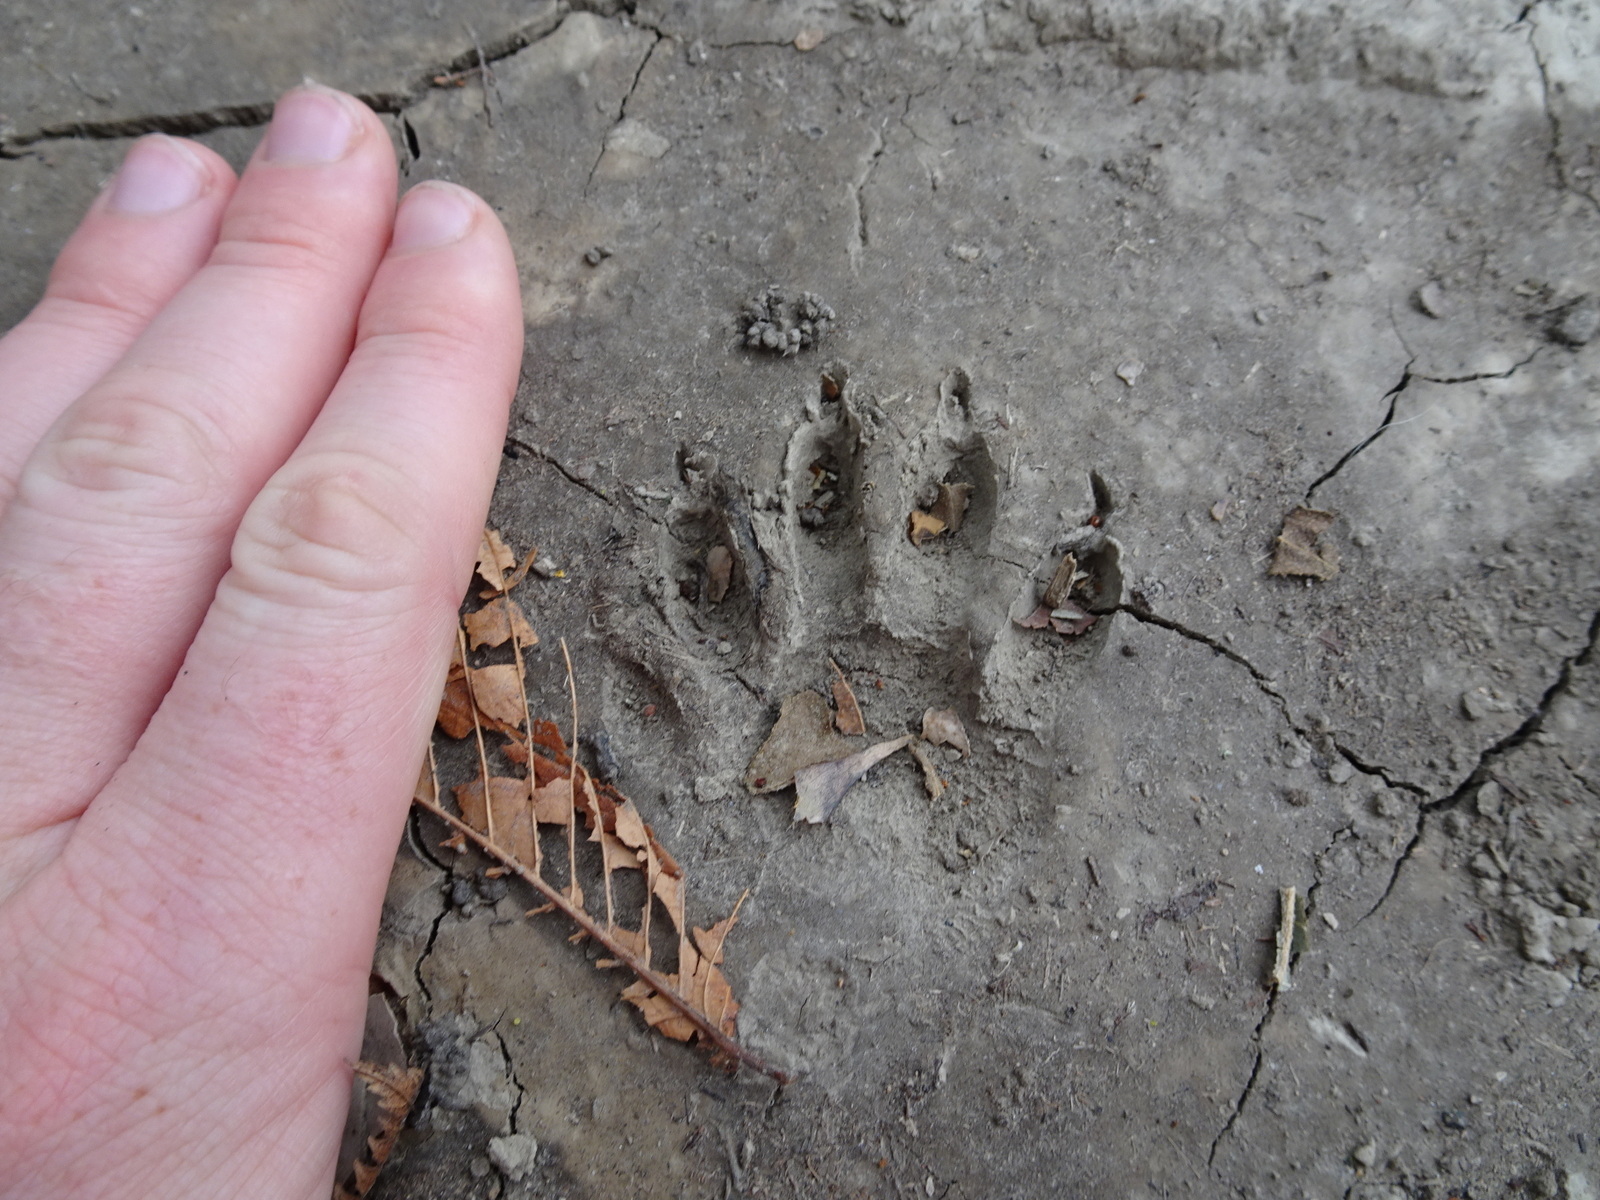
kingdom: Animalia
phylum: Chordata
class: Mammalia
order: Carnivora
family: Procyonidae
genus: Procyon
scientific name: Procyon lotor
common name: Raccoon
